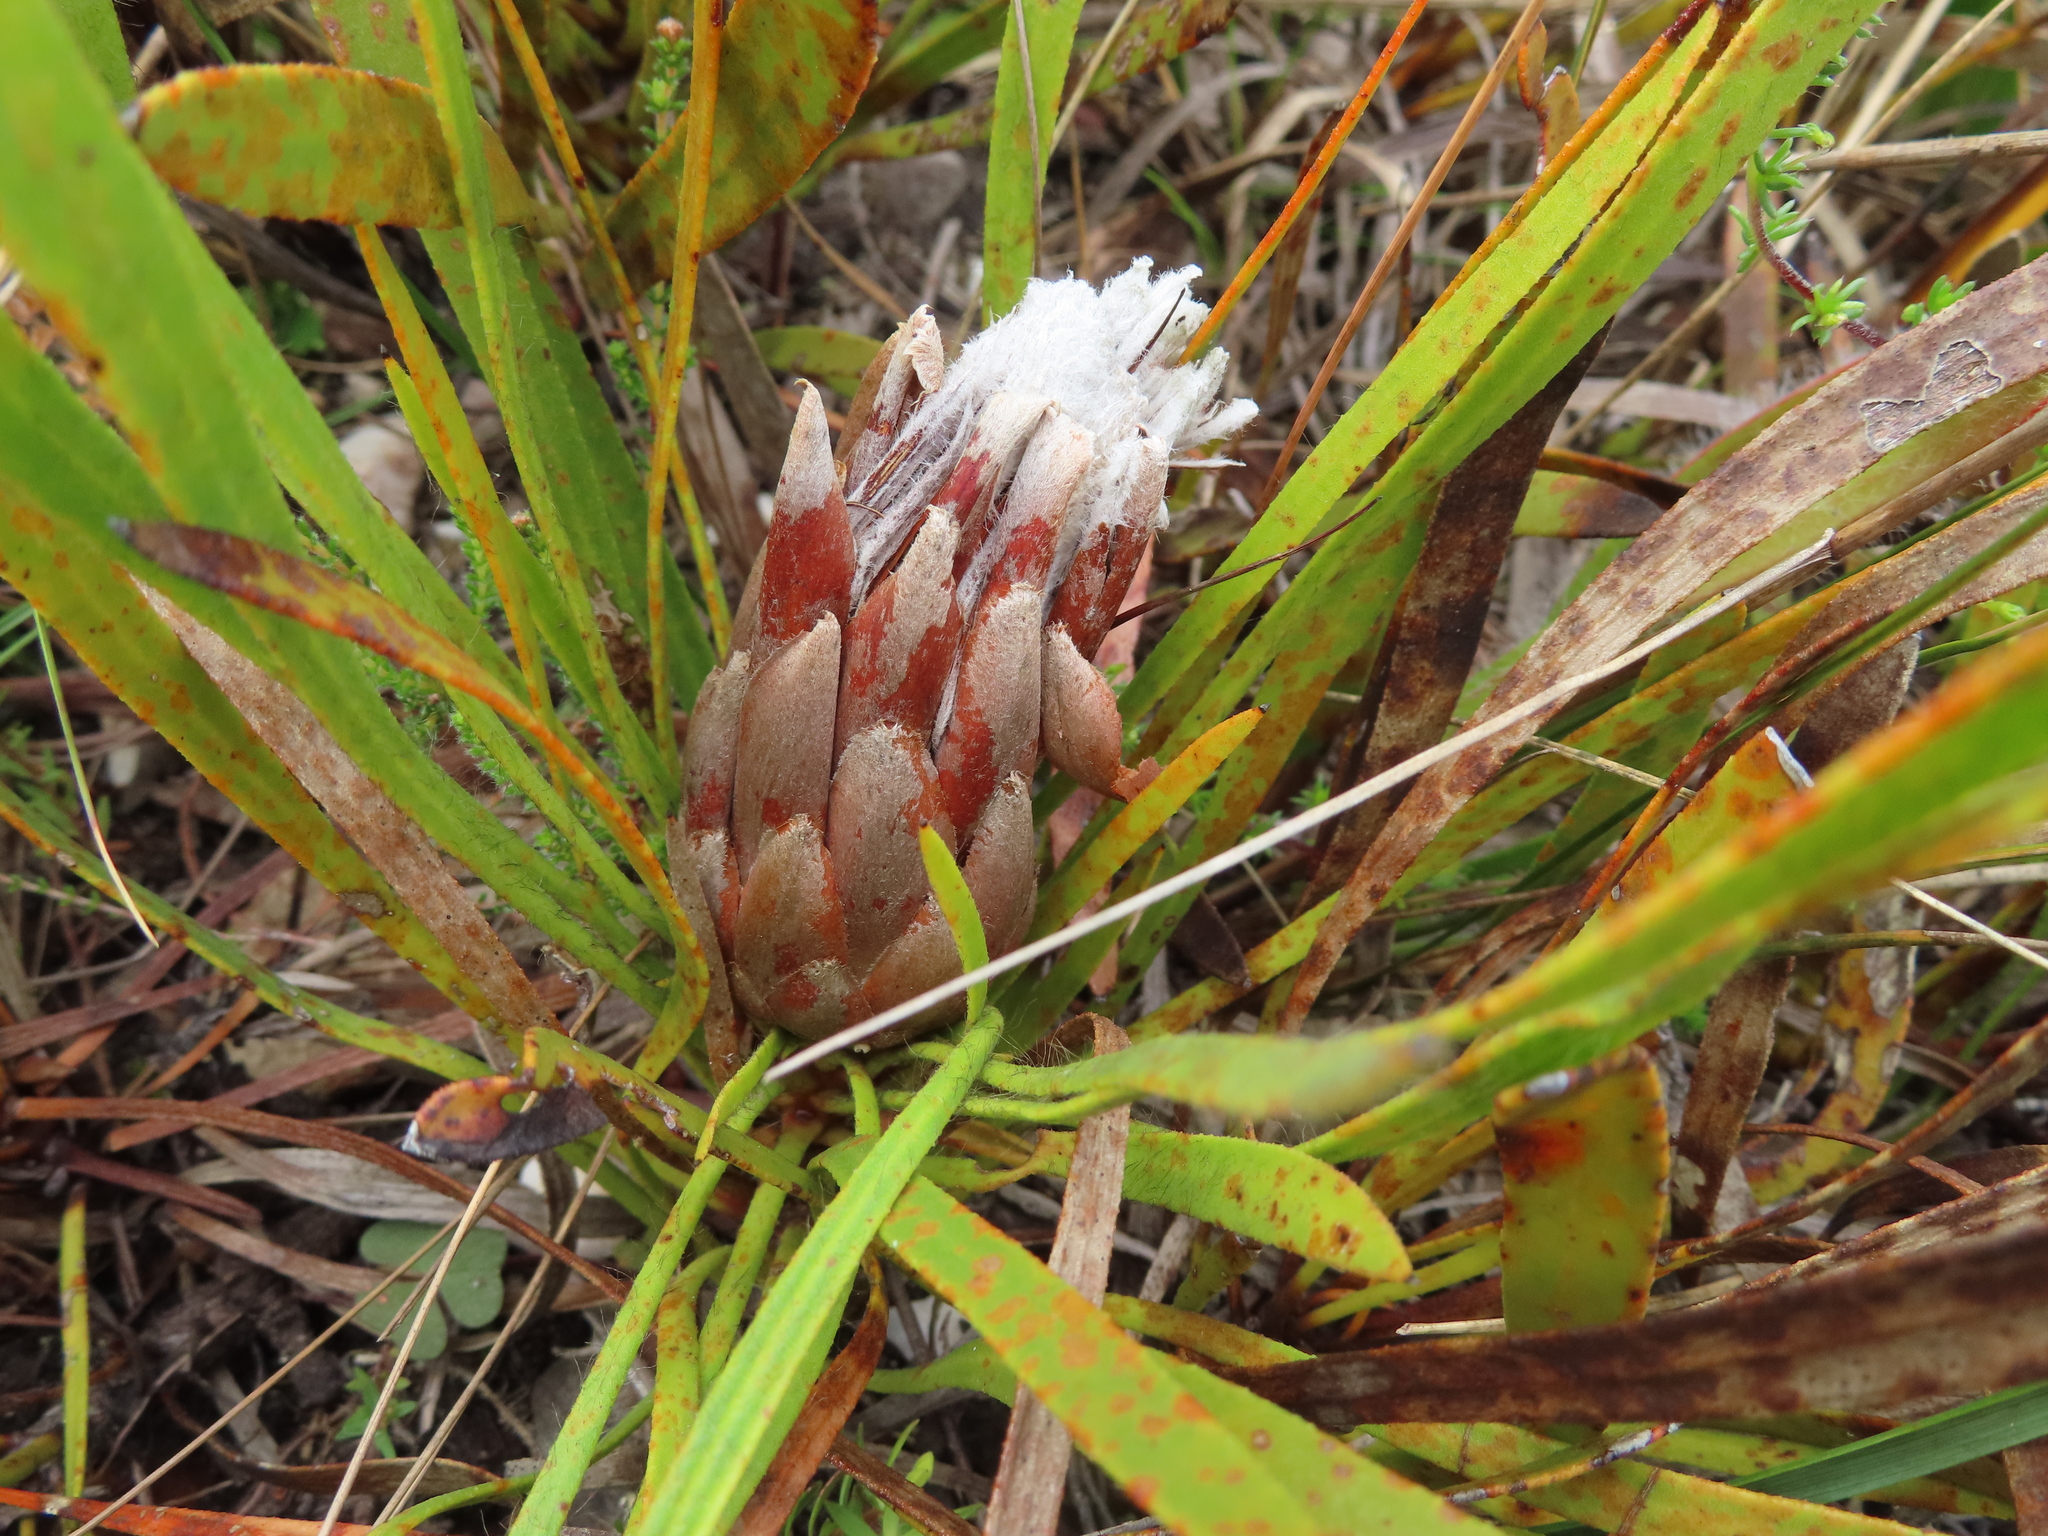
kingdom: Plantae
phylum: Tracheophyta
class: Magnoliopsida
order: Proteales
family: Proteaceae
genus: Protea
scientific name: Protea aspera
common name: Rough-leaf sugarbush
